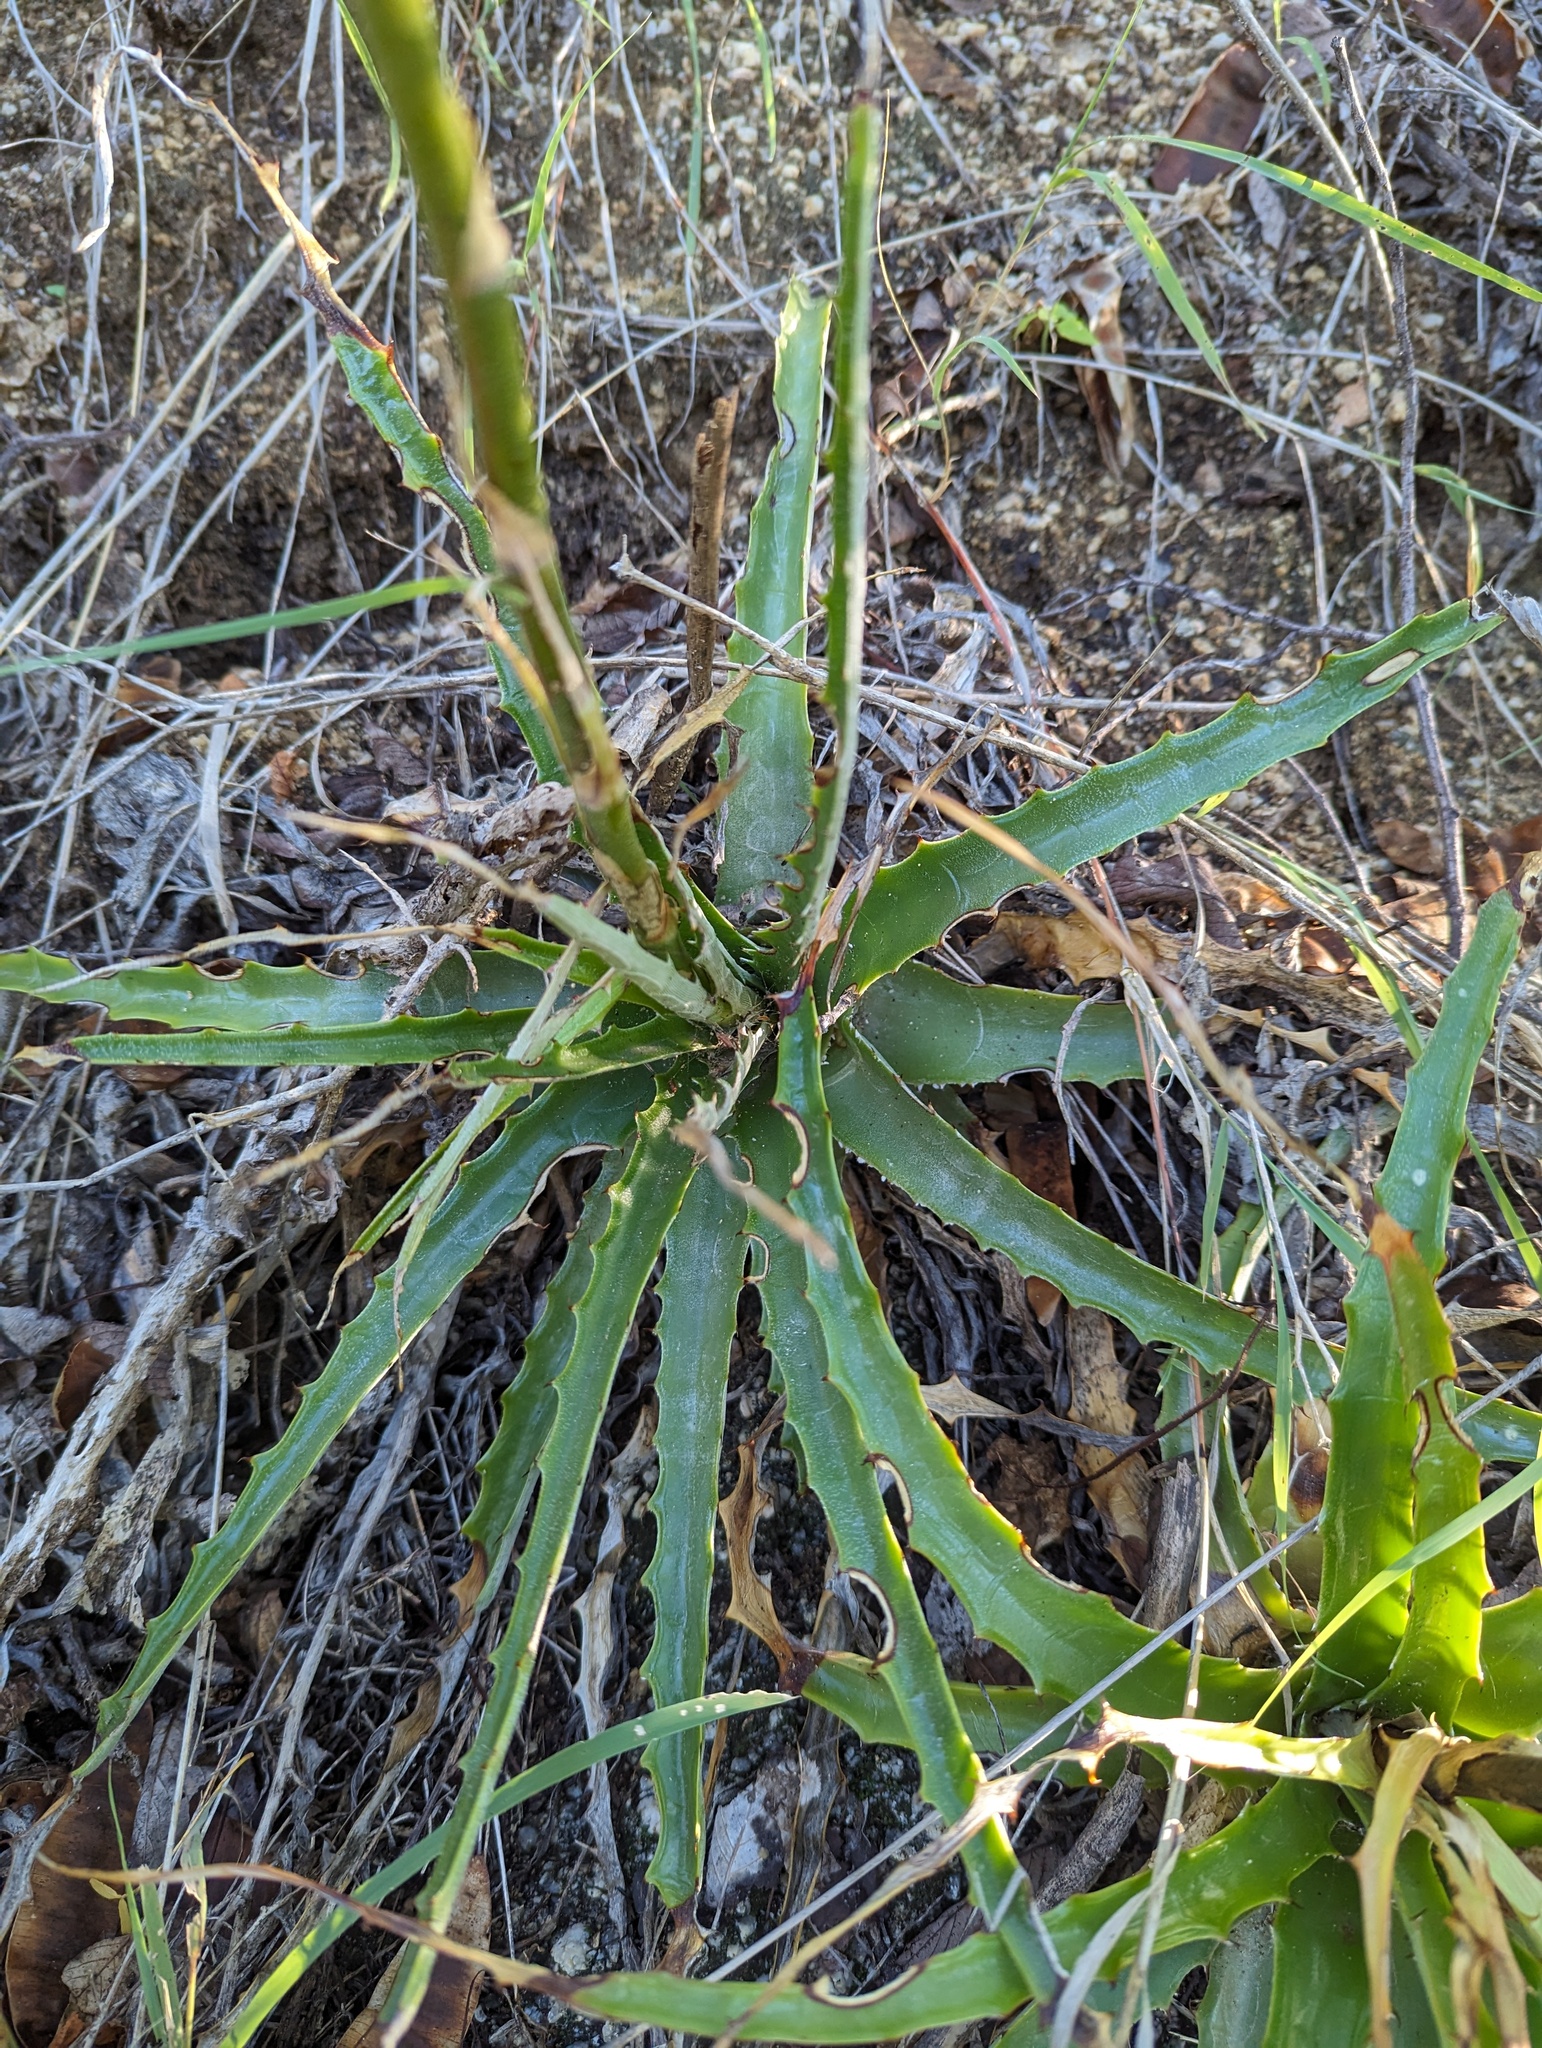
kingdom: Plantae
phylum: Tracheophyta
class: Liliopsida
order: Poales
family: Bromeliaceae
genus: Hechtia
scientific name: Hechtia montana
